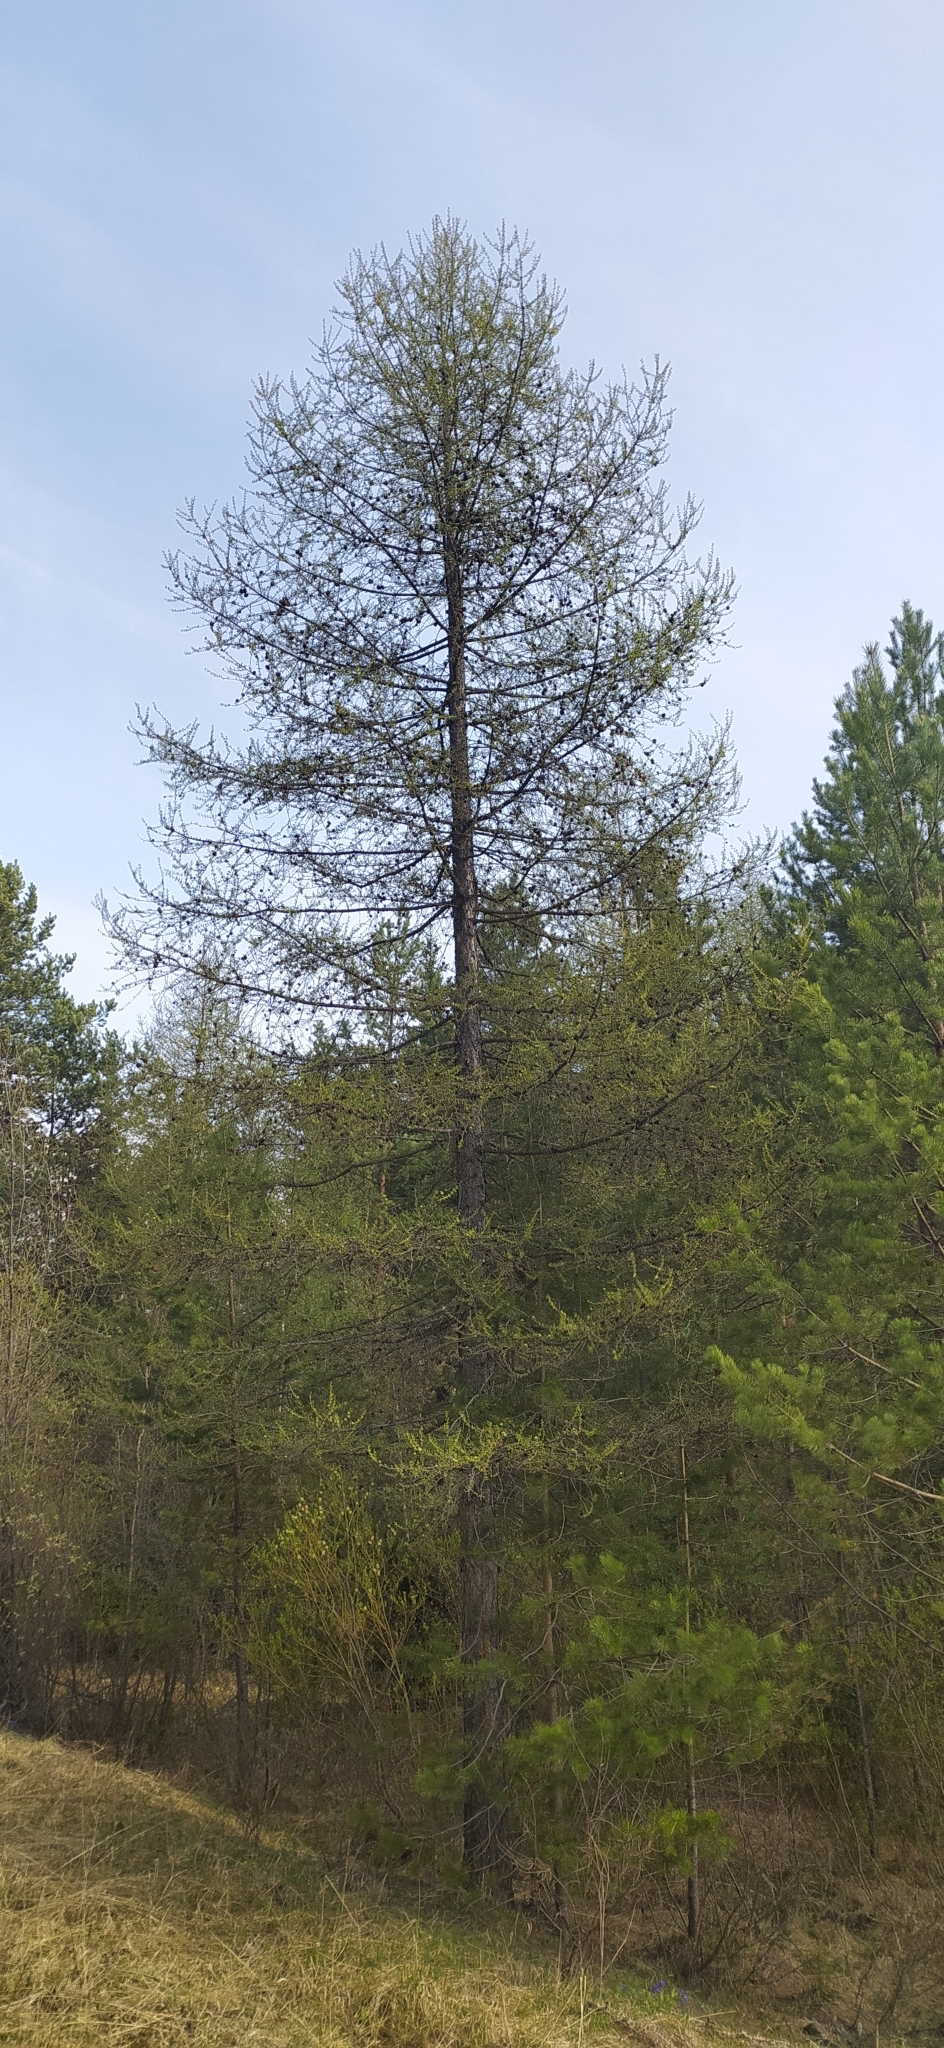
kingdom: Plantae
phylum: Tracheophyta
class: Pinopsida
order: Pinales
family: Pinaceae
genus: Larix
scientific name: Larix sibirica
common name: Siberian larch
